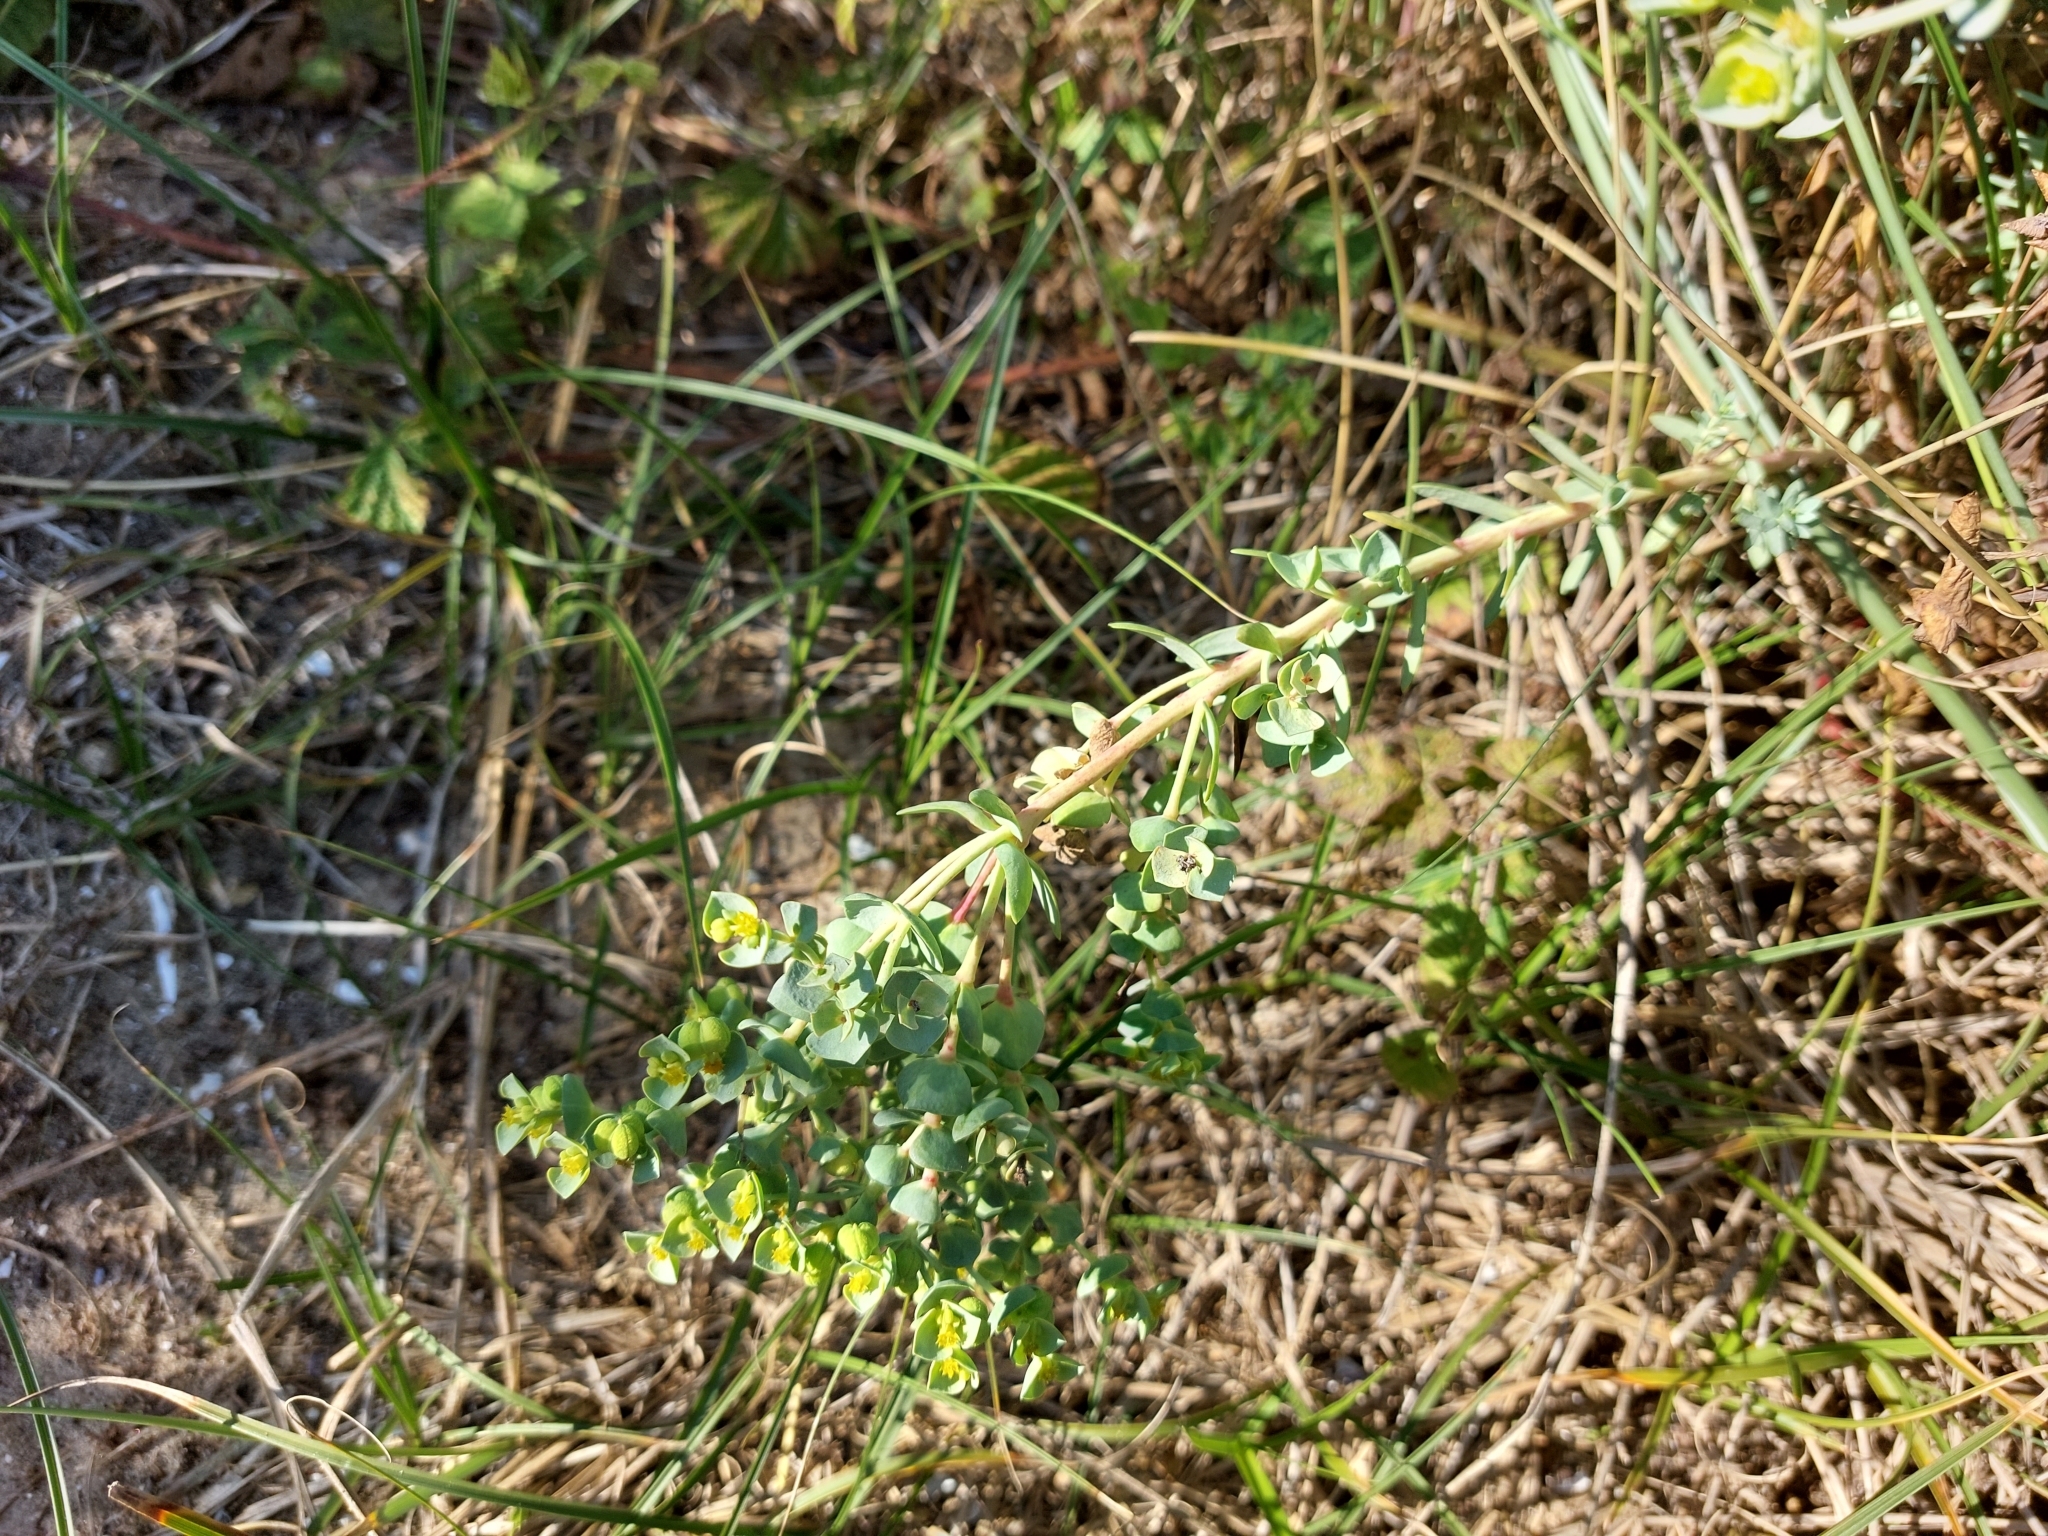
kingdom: Plantae
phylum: Tracheophyta
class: Magnoliopsida
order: Malpighiales
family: Euphorbiaceae
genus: Euphorbia
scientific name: Euphorbia paralias
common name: Sea spurge
